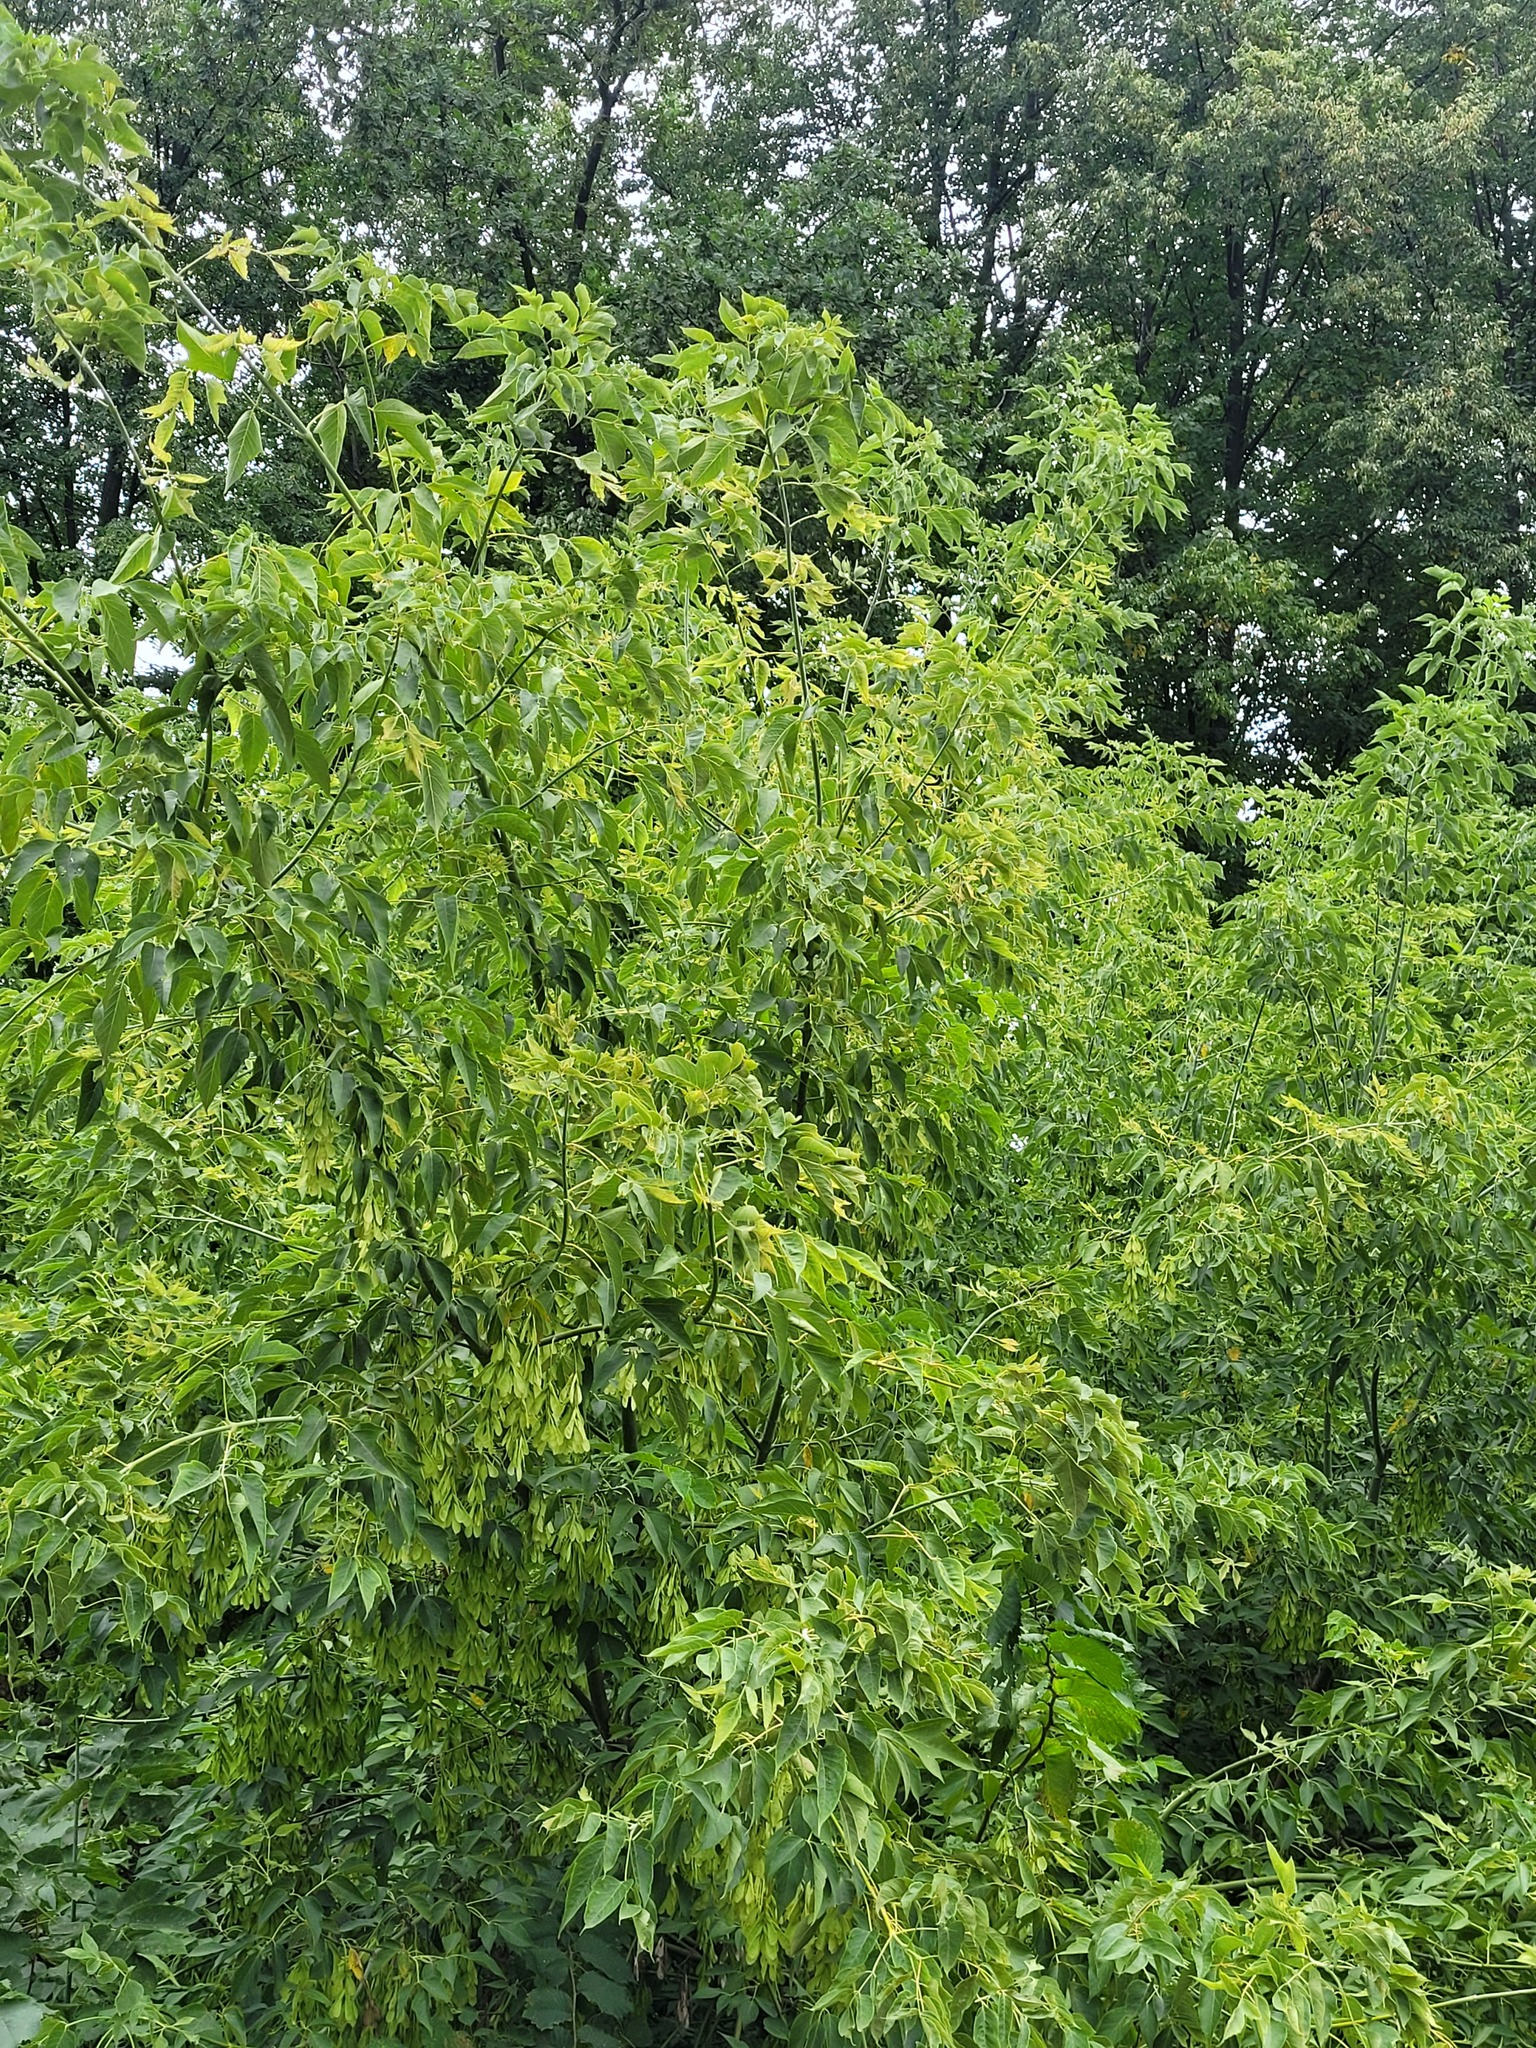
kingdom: Plantae
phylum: Tracheophyta
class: Magnoliopsida
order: Sapindales
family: Sapindaceae
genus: Acer
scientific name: Acer negundo
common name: Ashleaf maple
